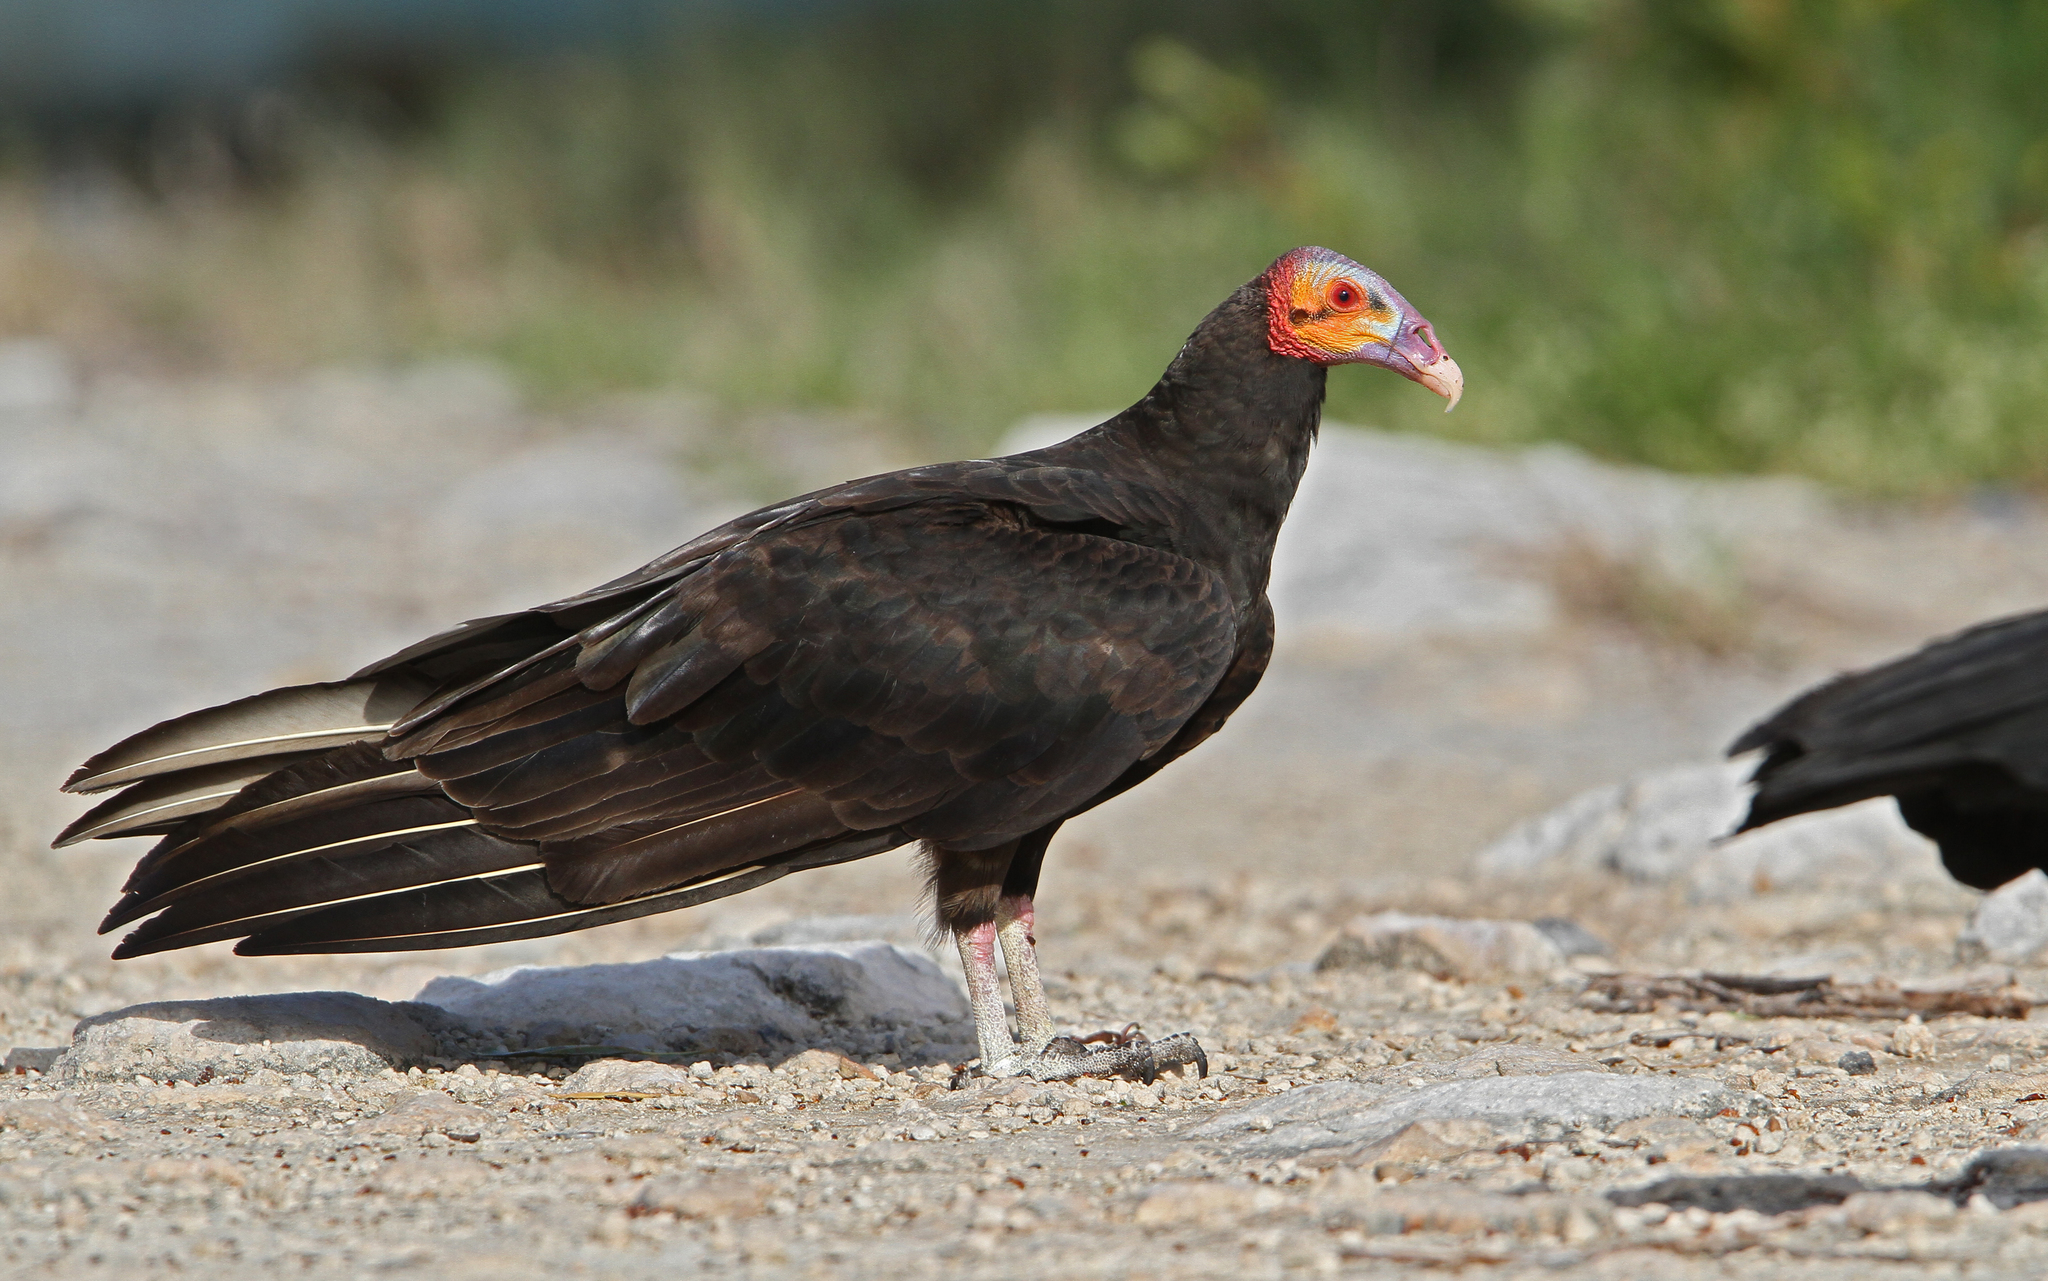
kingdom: Animalia
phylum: Chordata
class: Aves
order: Accipitriformes
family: Cathartidae
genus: Cathartes
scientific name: Cathartes burrovianus
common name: Lesser yellow-headed vulture
